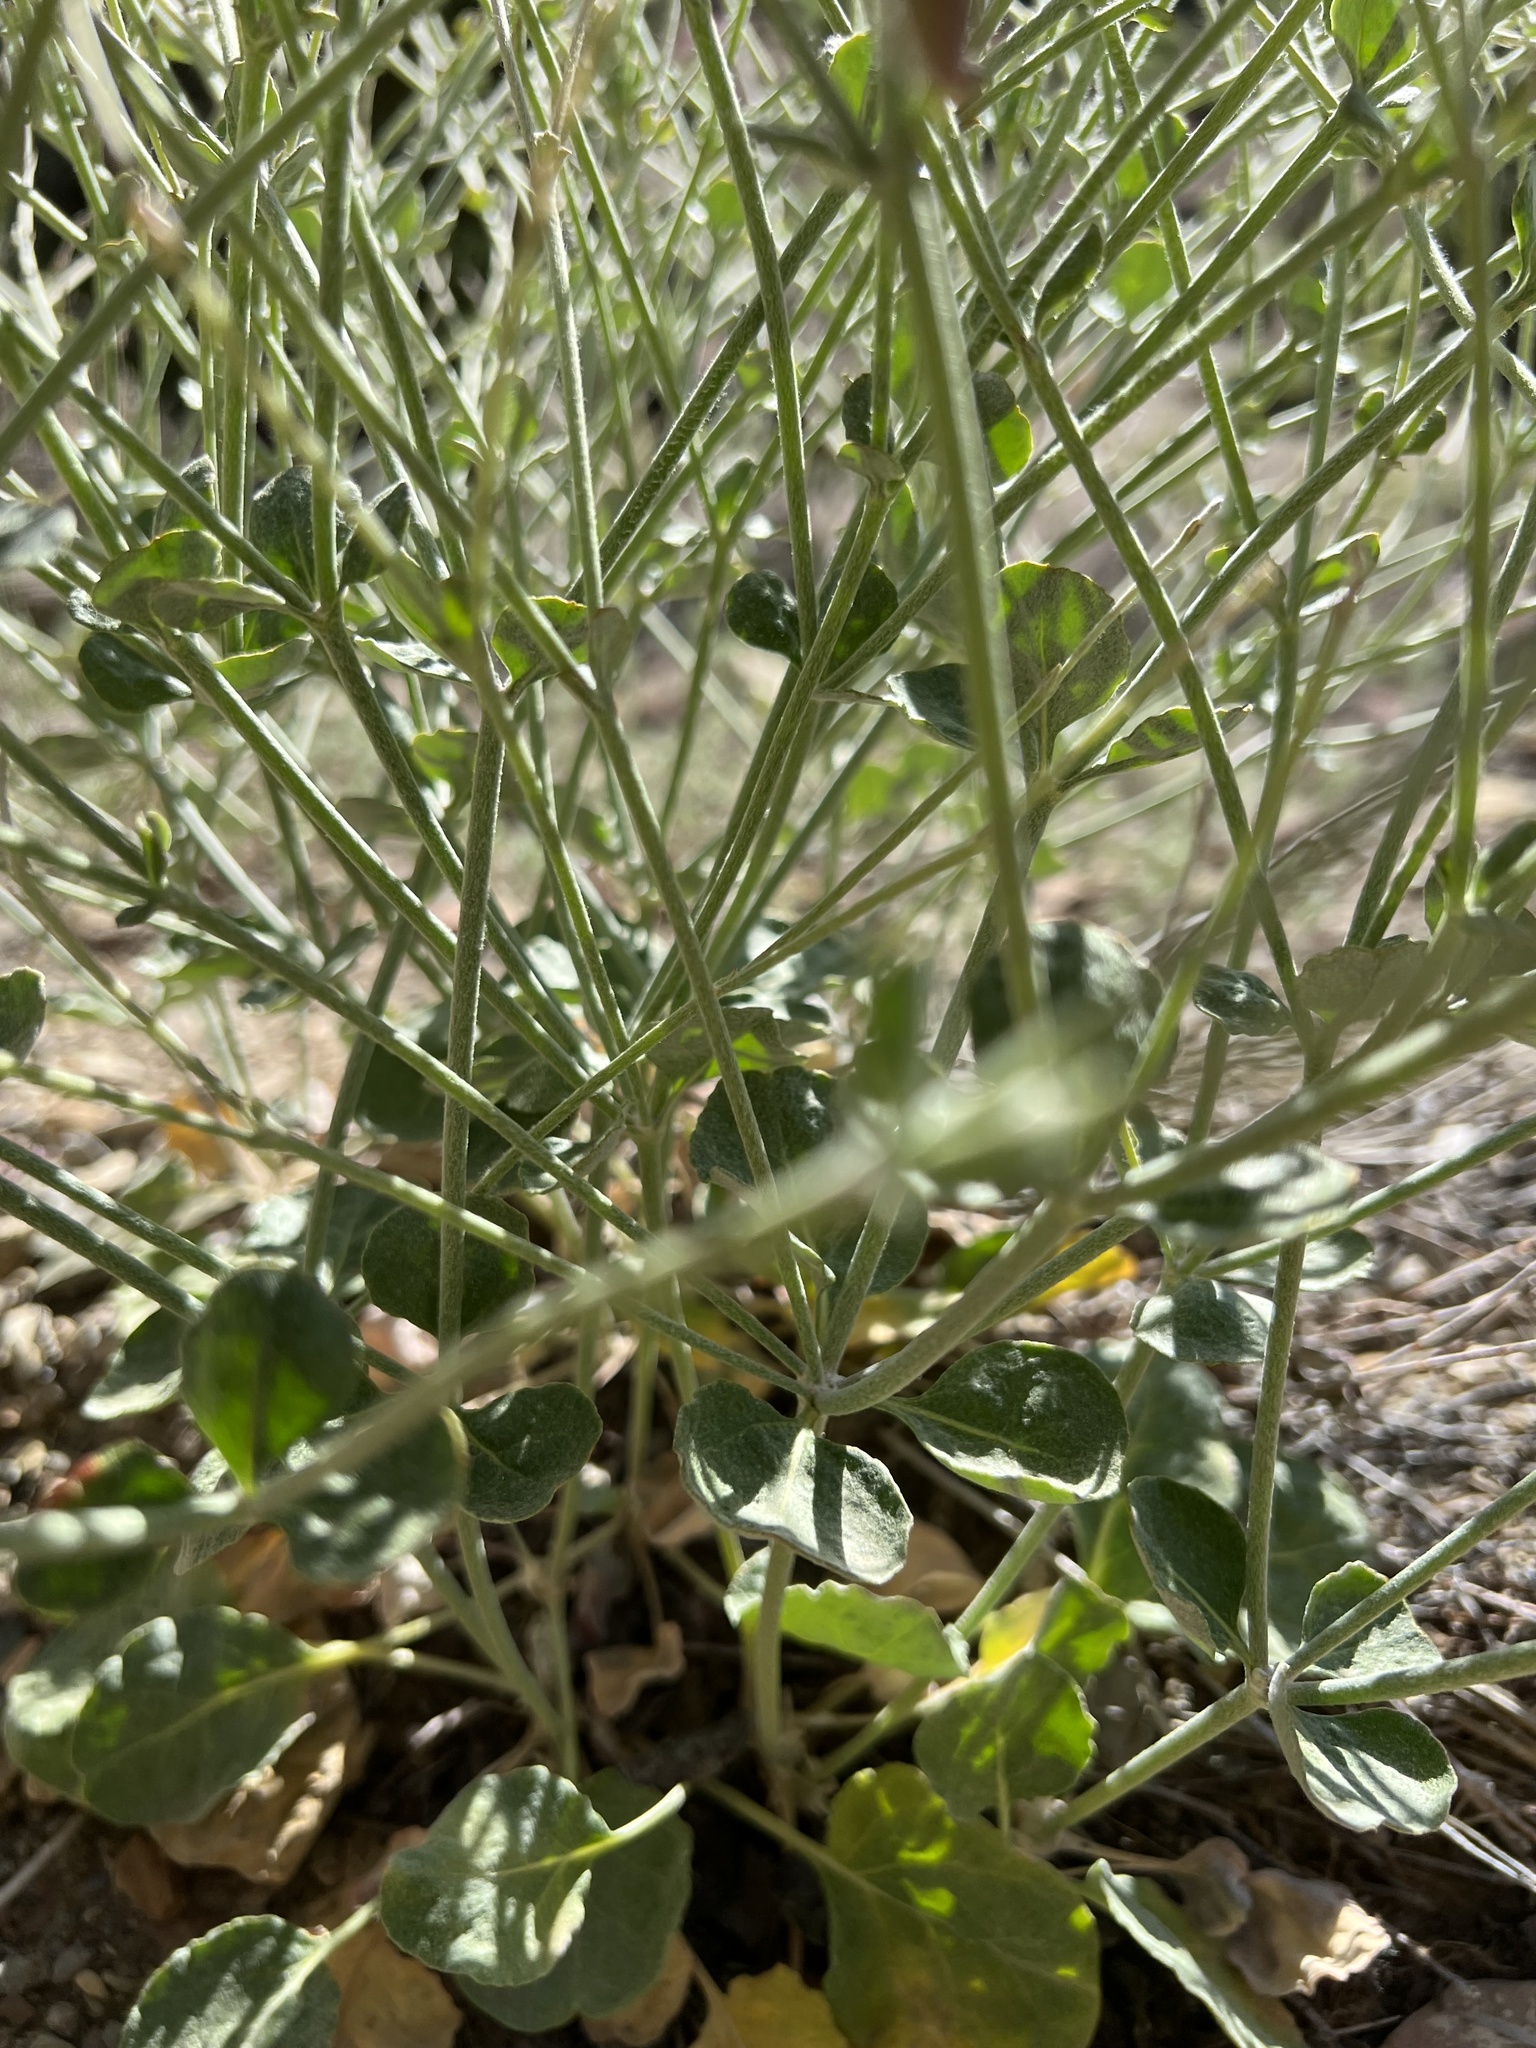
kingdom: Plantae
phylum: Tracheophyta
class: Magnoliopsida
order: Caryophyllales
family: Polygonaceae
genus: Eriogonum
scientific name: Eriogonum panamintense
